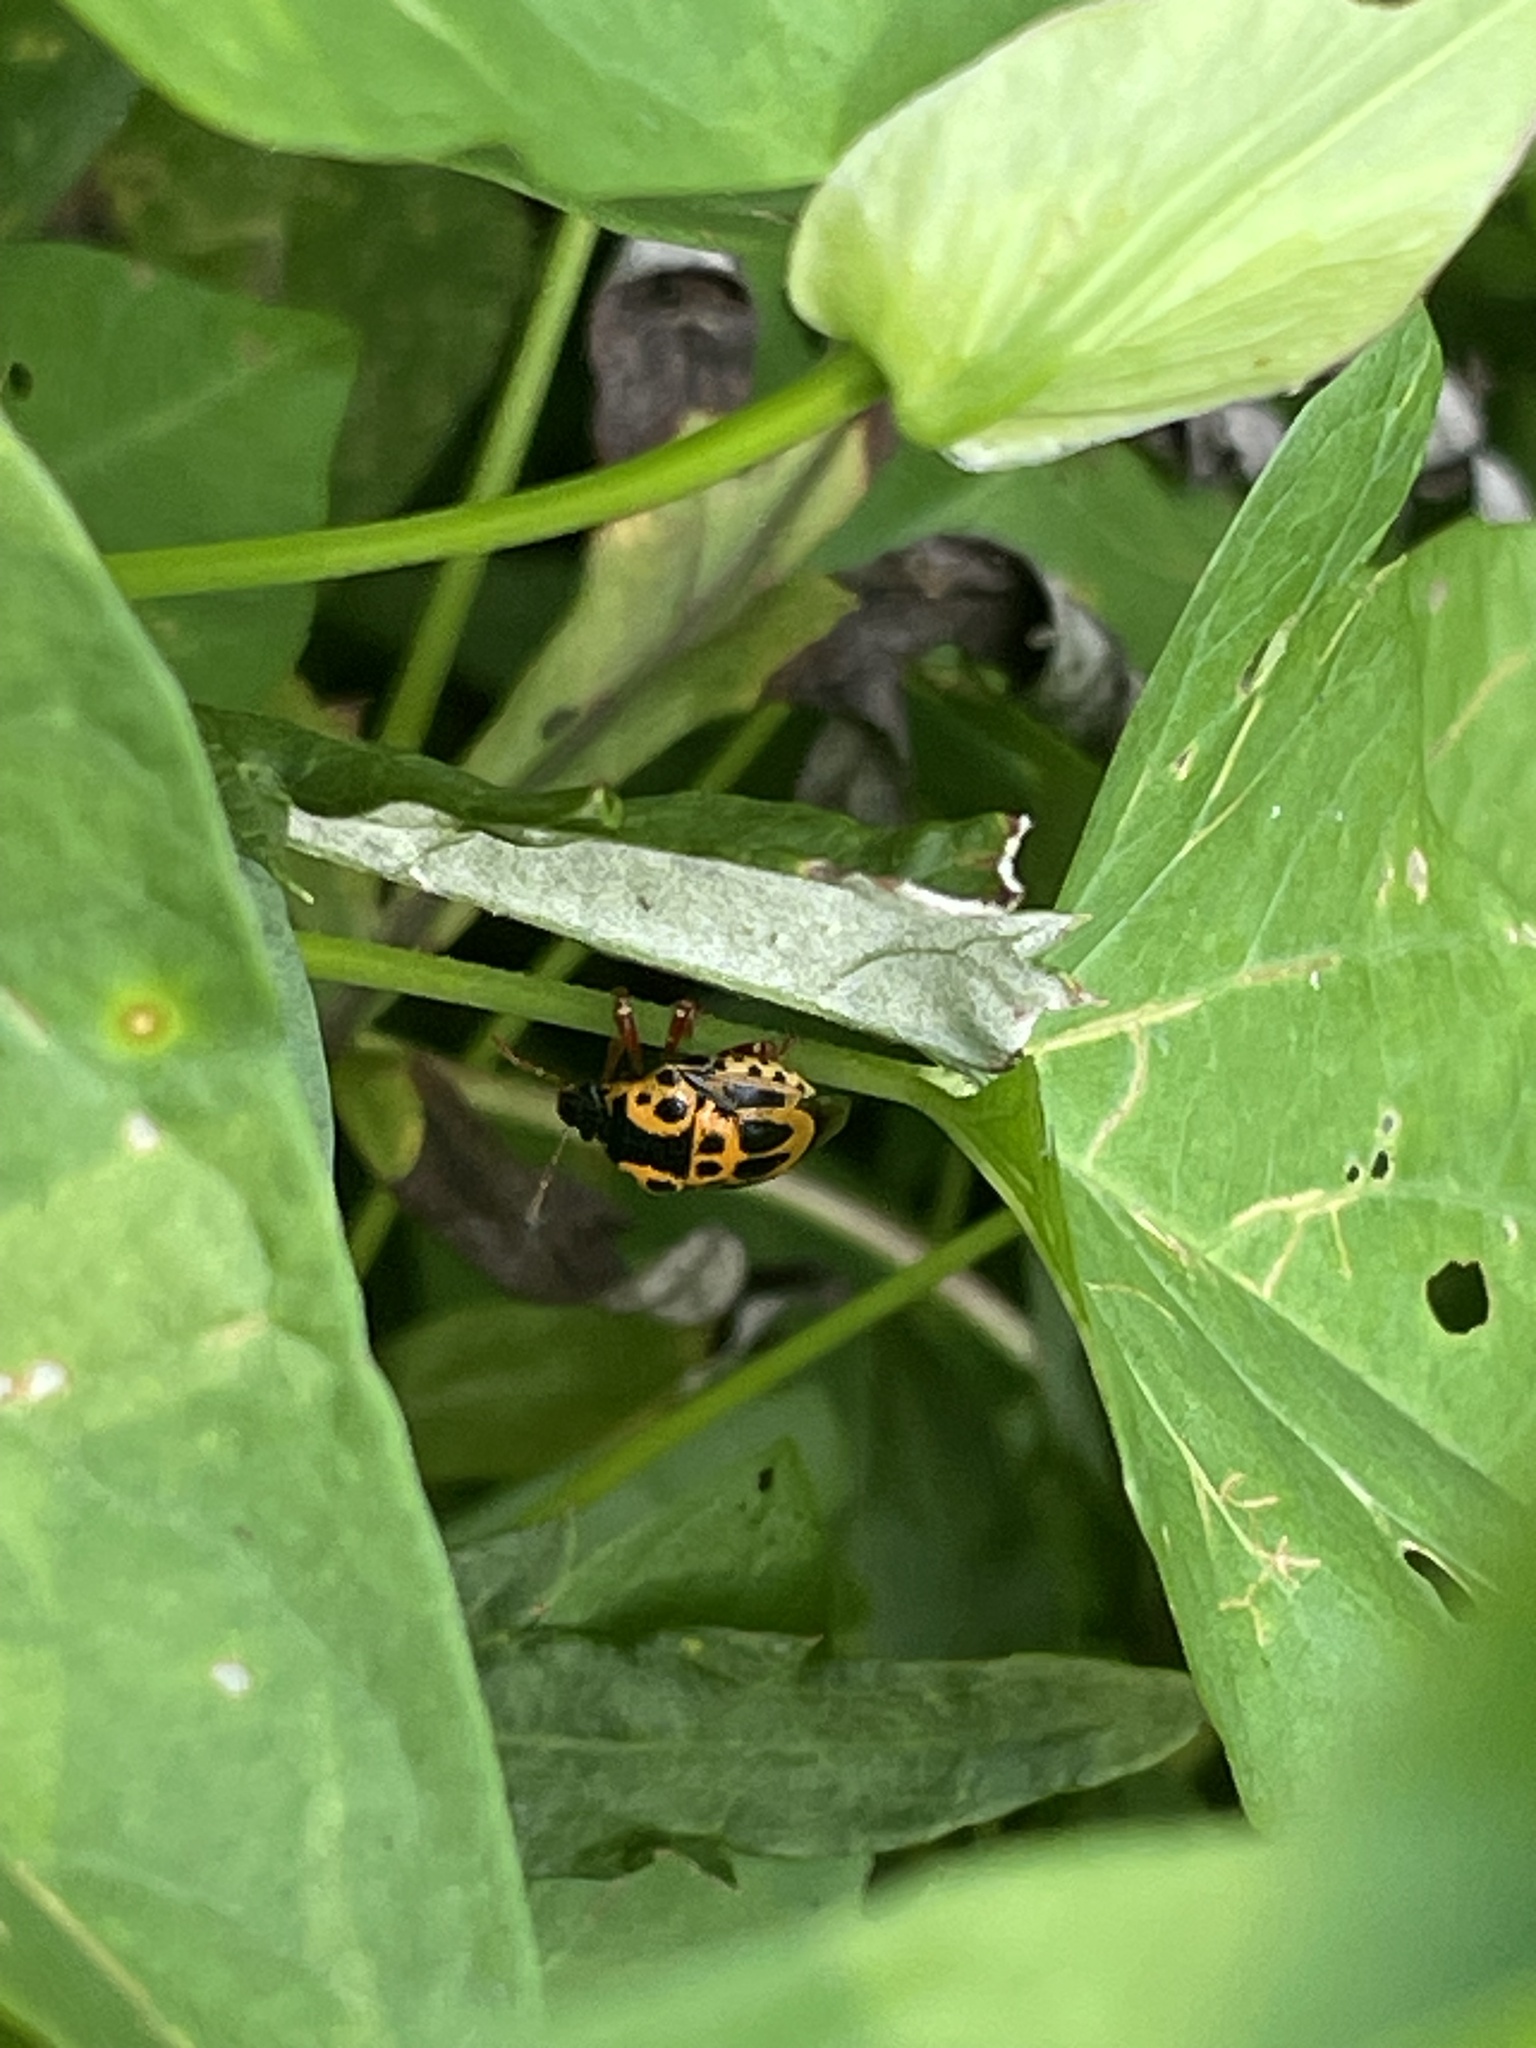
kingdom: Animalia
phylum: Arthropoda
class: Insecta
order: Hemiptera
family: Pentatomidae
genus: Stiretrus
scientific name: Stiretrus anchorago
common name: Anchor stink bug
